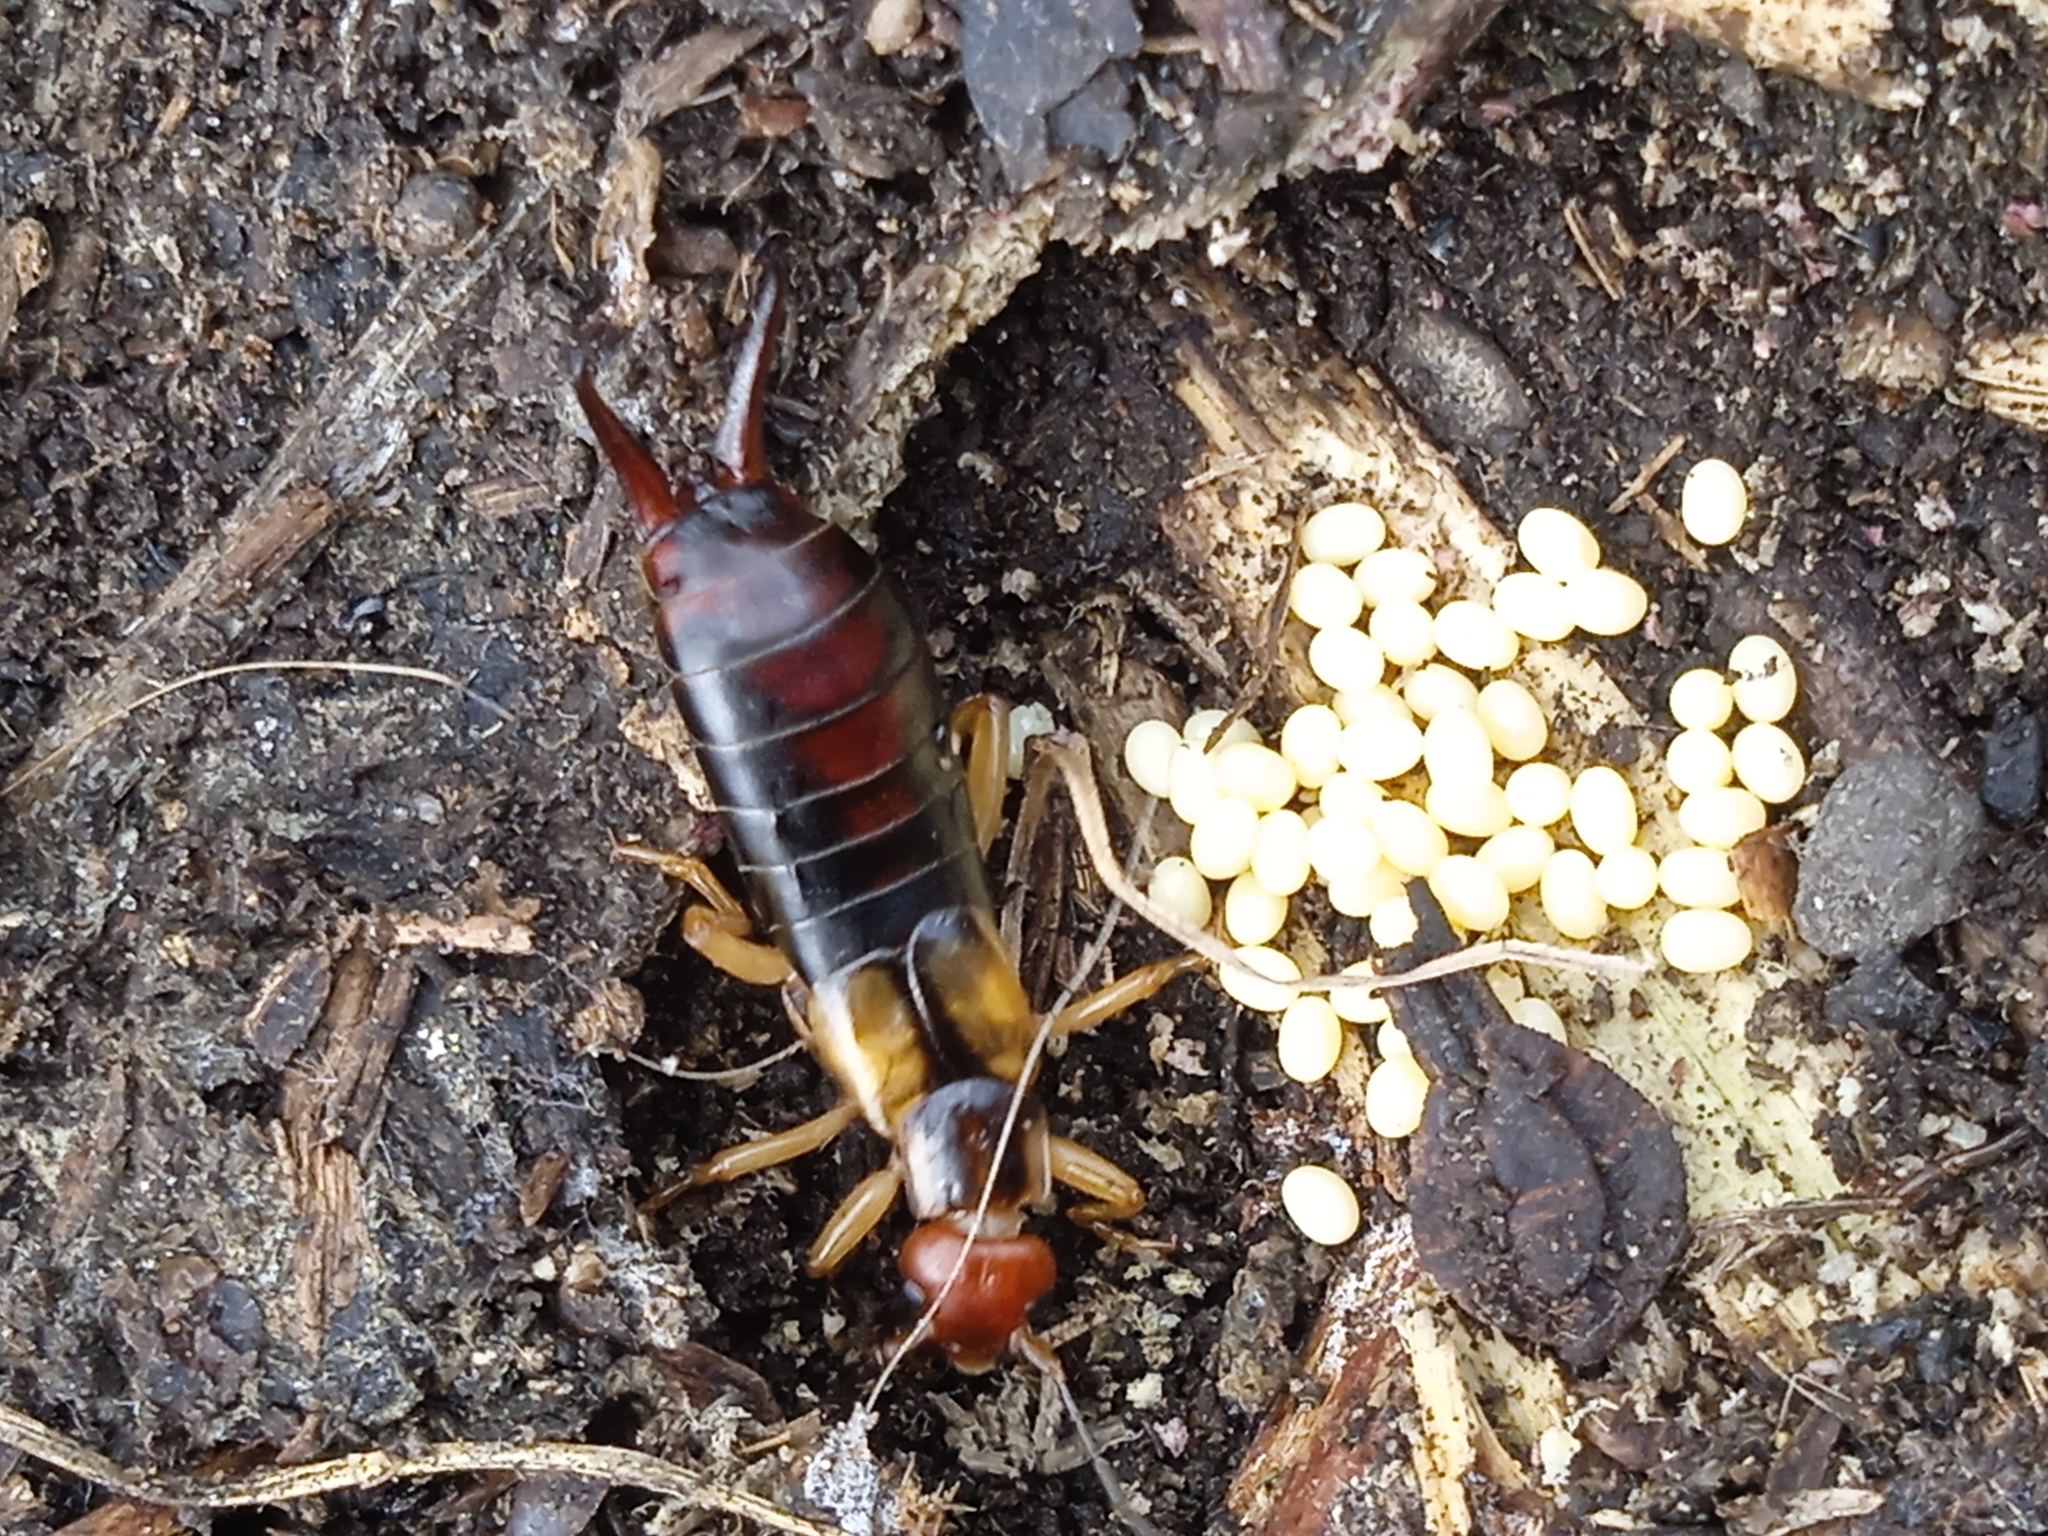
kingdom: Animalia
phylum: Arthropoda
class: Insecta
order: Dermaptera
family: Forficulidae
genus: Forficula
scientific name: Forficula tomis
